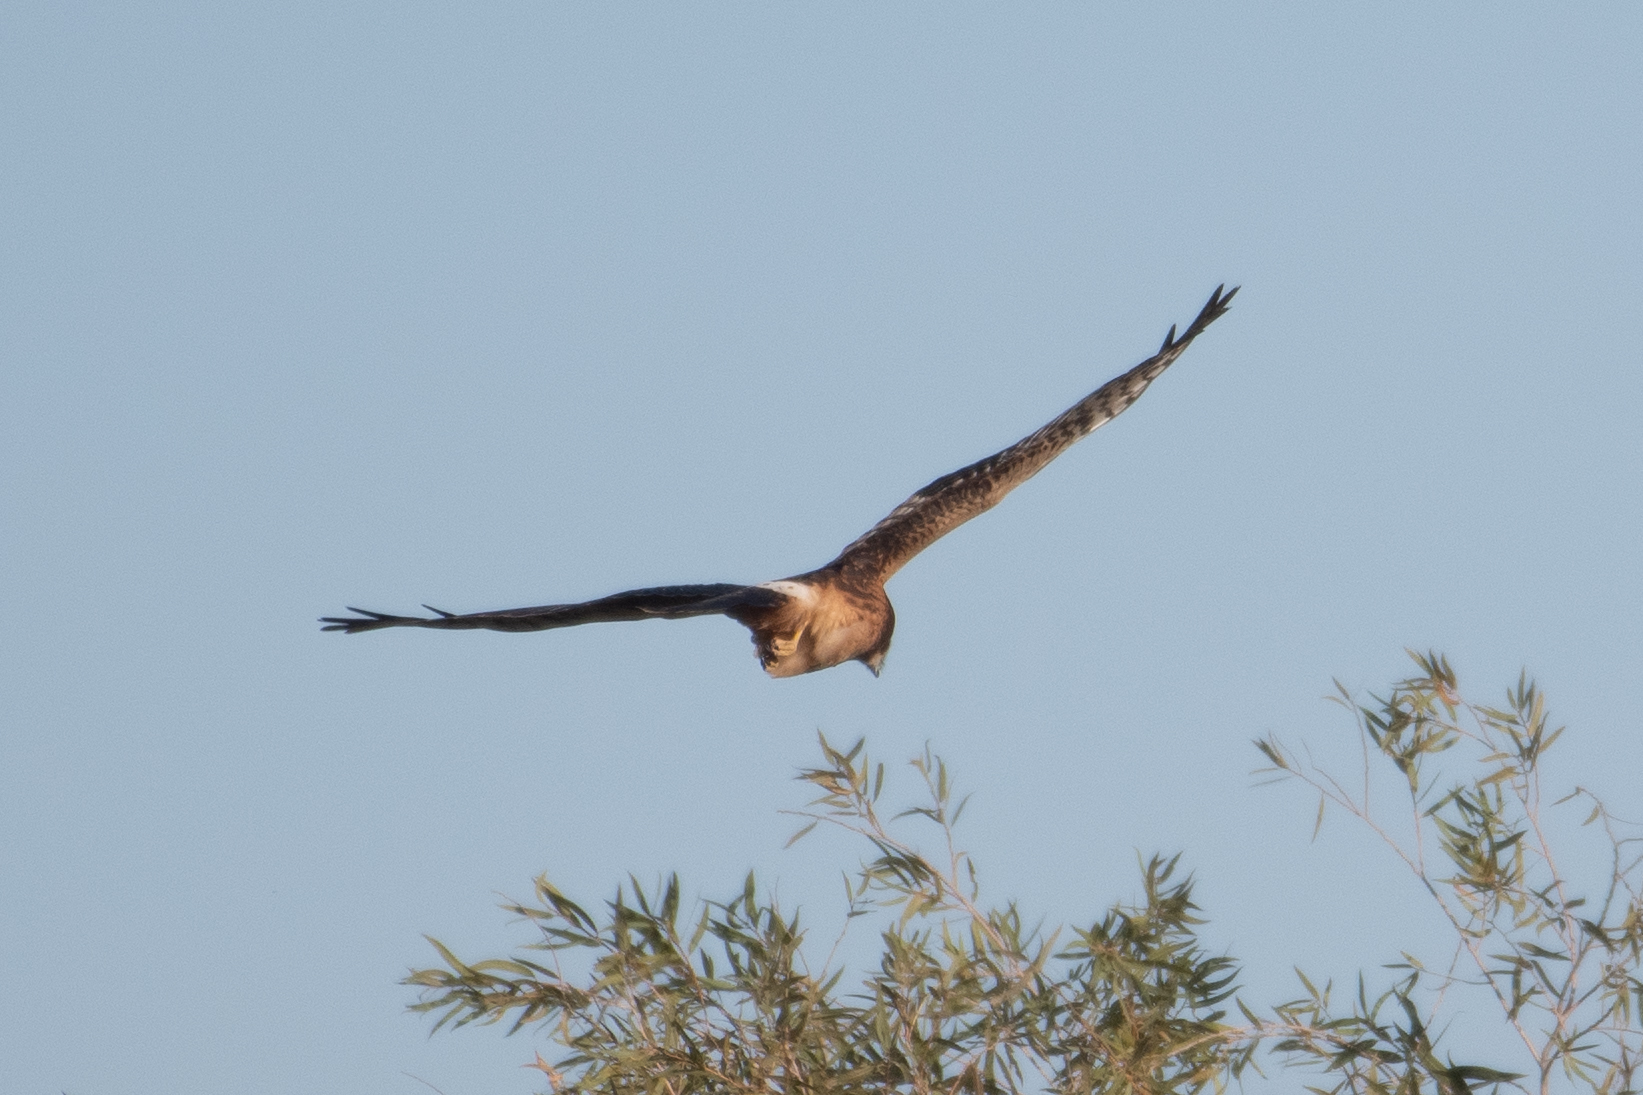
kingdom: Animalia
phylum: Chordata
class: Aves
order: Accipitriformes
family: Accipitridae
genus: Circus
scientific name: Circus cyaneus
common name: Hen harrier
